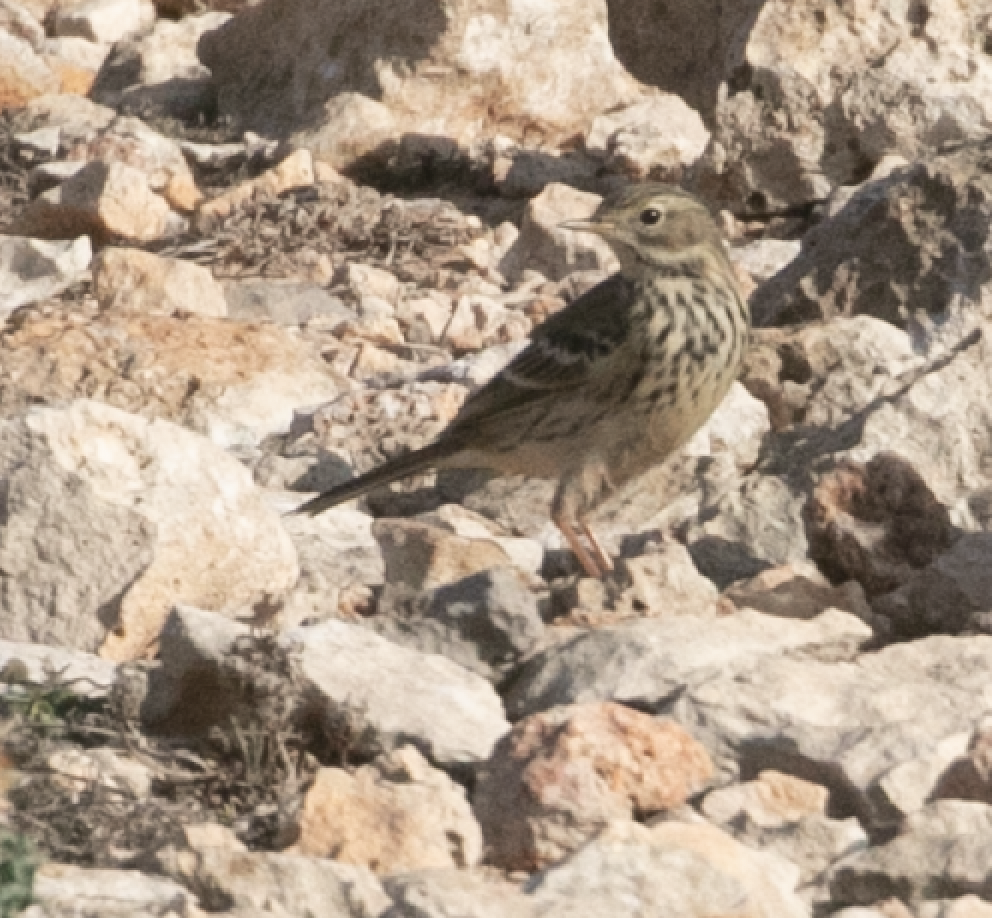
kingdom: Animalia
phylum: Chordata
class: Aves
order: Passeriformes
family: Motacillidae
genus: Anthus
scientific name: Anthus pratensis
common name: Meadow pipit
